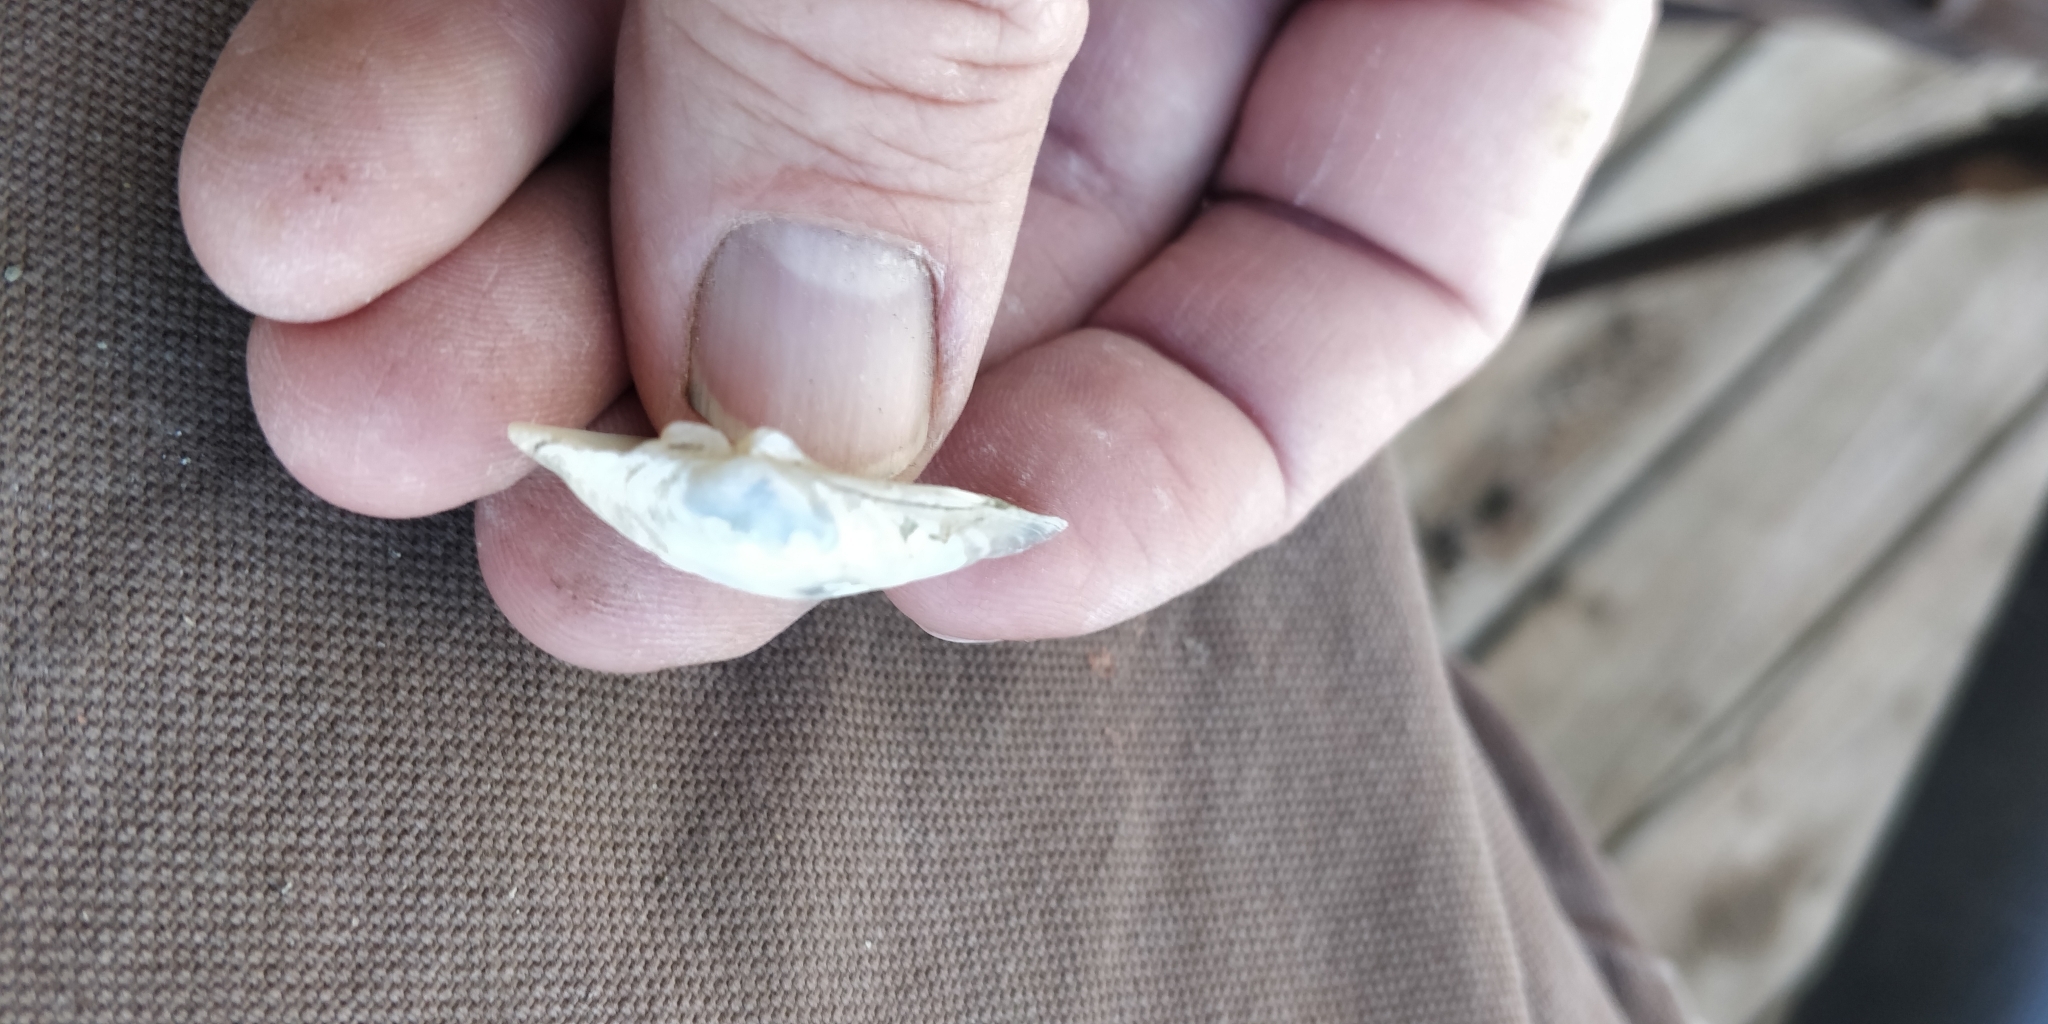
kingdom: Animalia
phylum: Mollusca
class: Bivalvia
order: Unionida
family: Unionidae
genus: Truncilla
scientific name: Truncilla donaciformis
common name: Fawnsfoot
